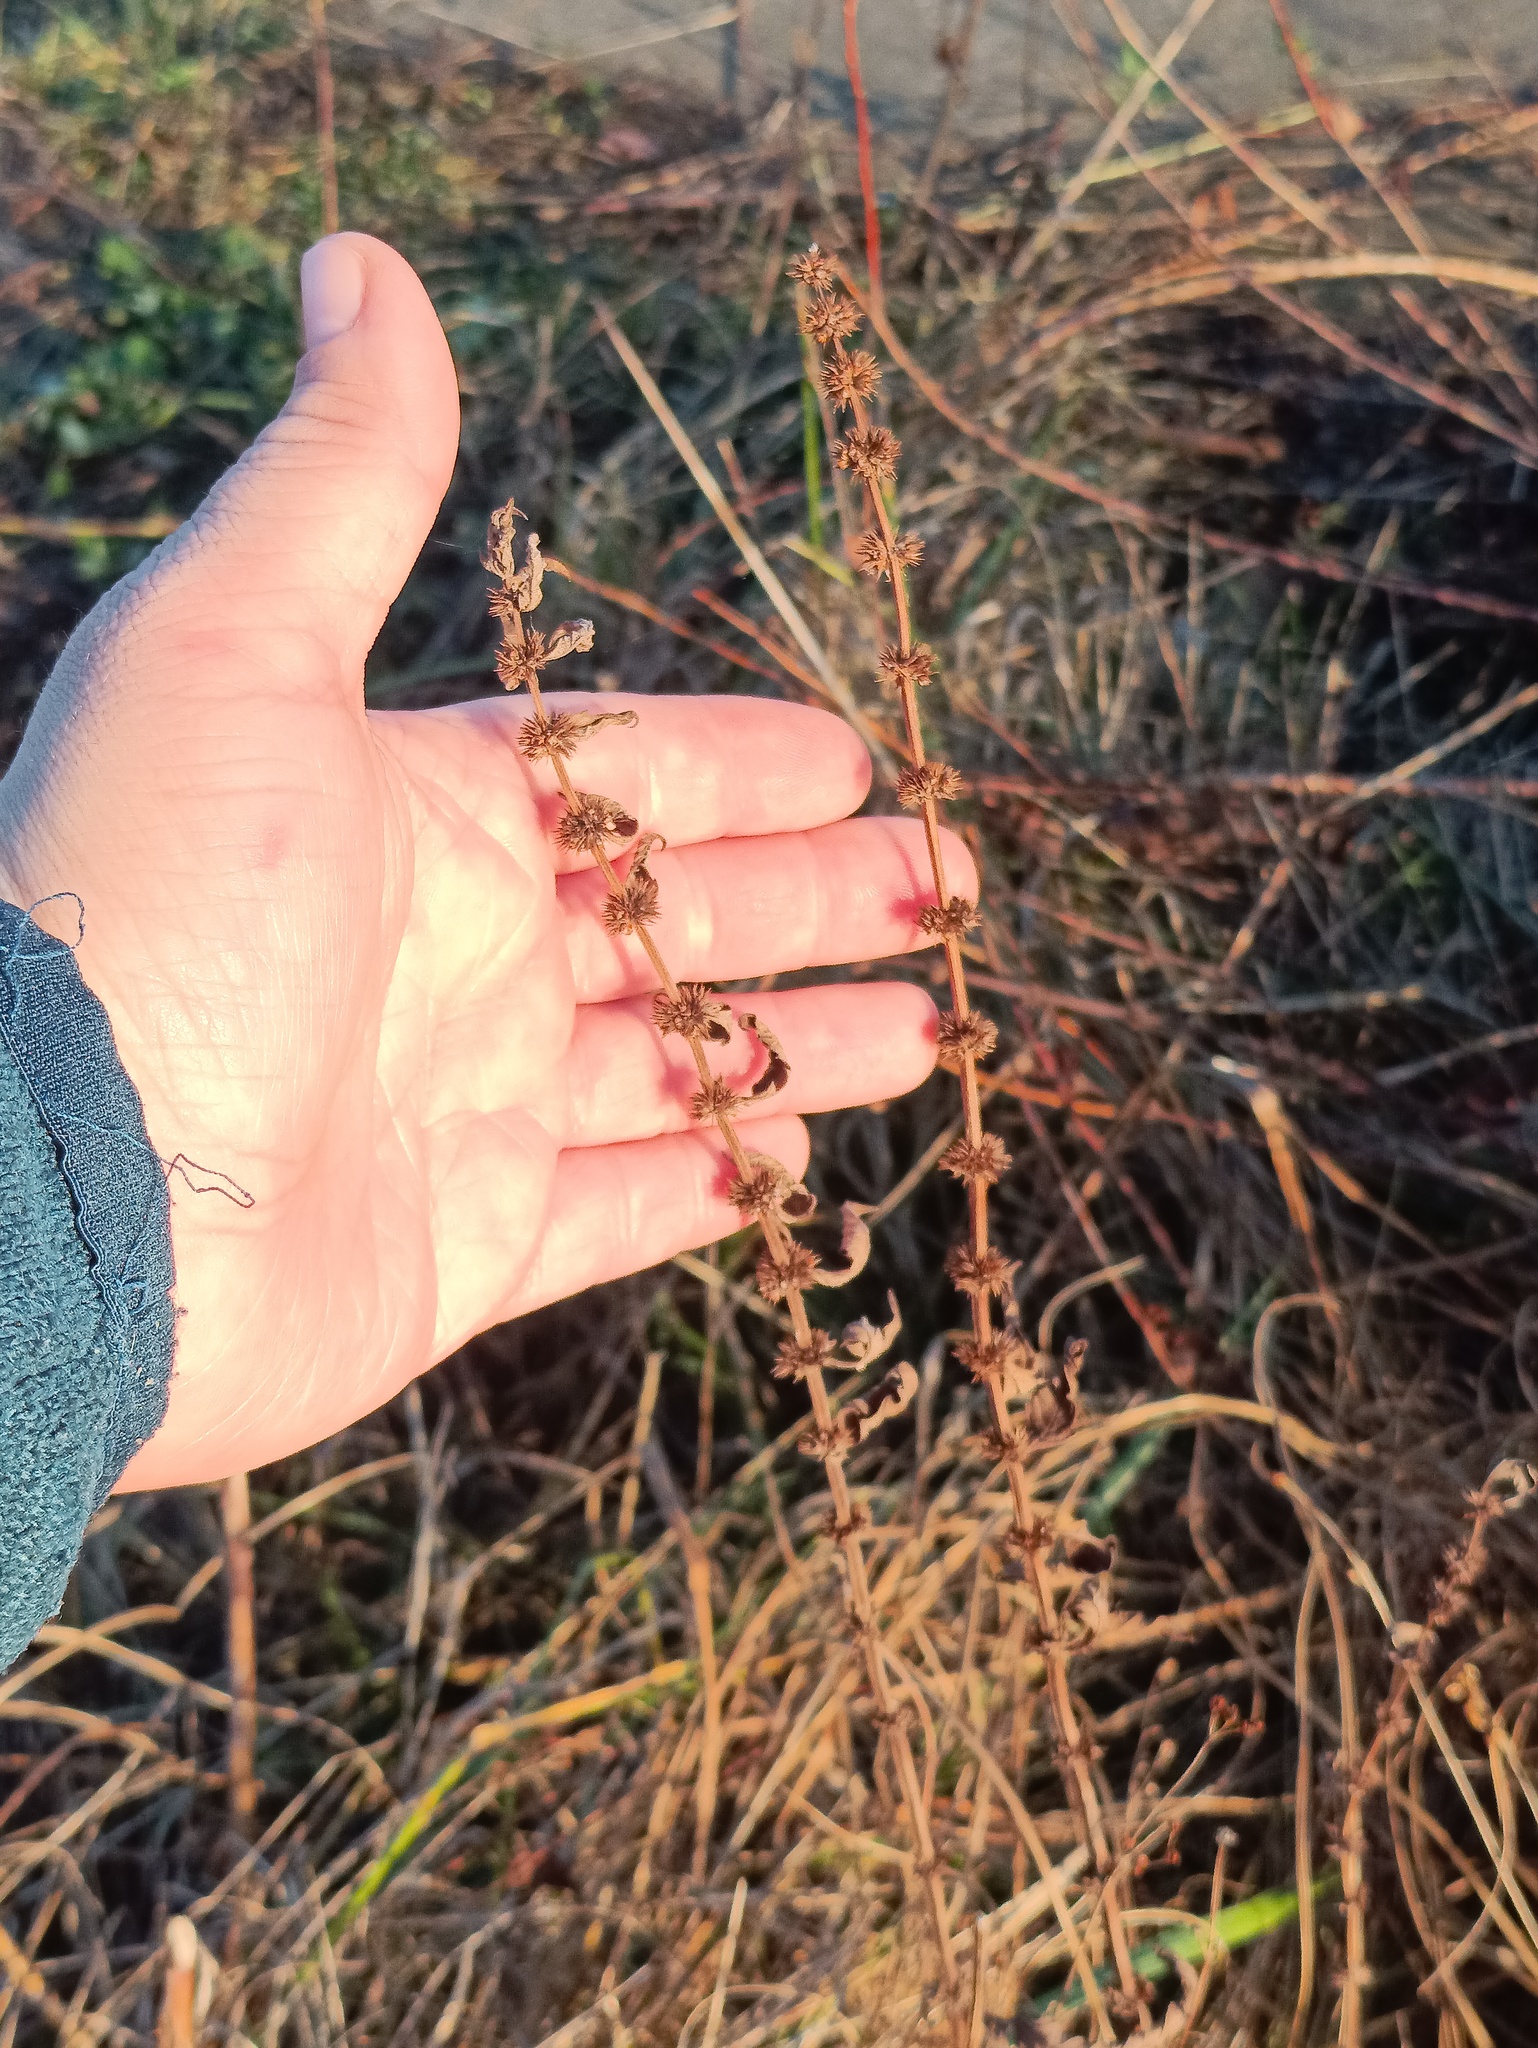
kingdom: Plantae
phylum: Tracheophyta
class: Magnoliopsida
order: Lamiales
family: Lamiaceae
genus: Lycopus
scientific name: Lycopus europaeus
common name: European bugleweed
